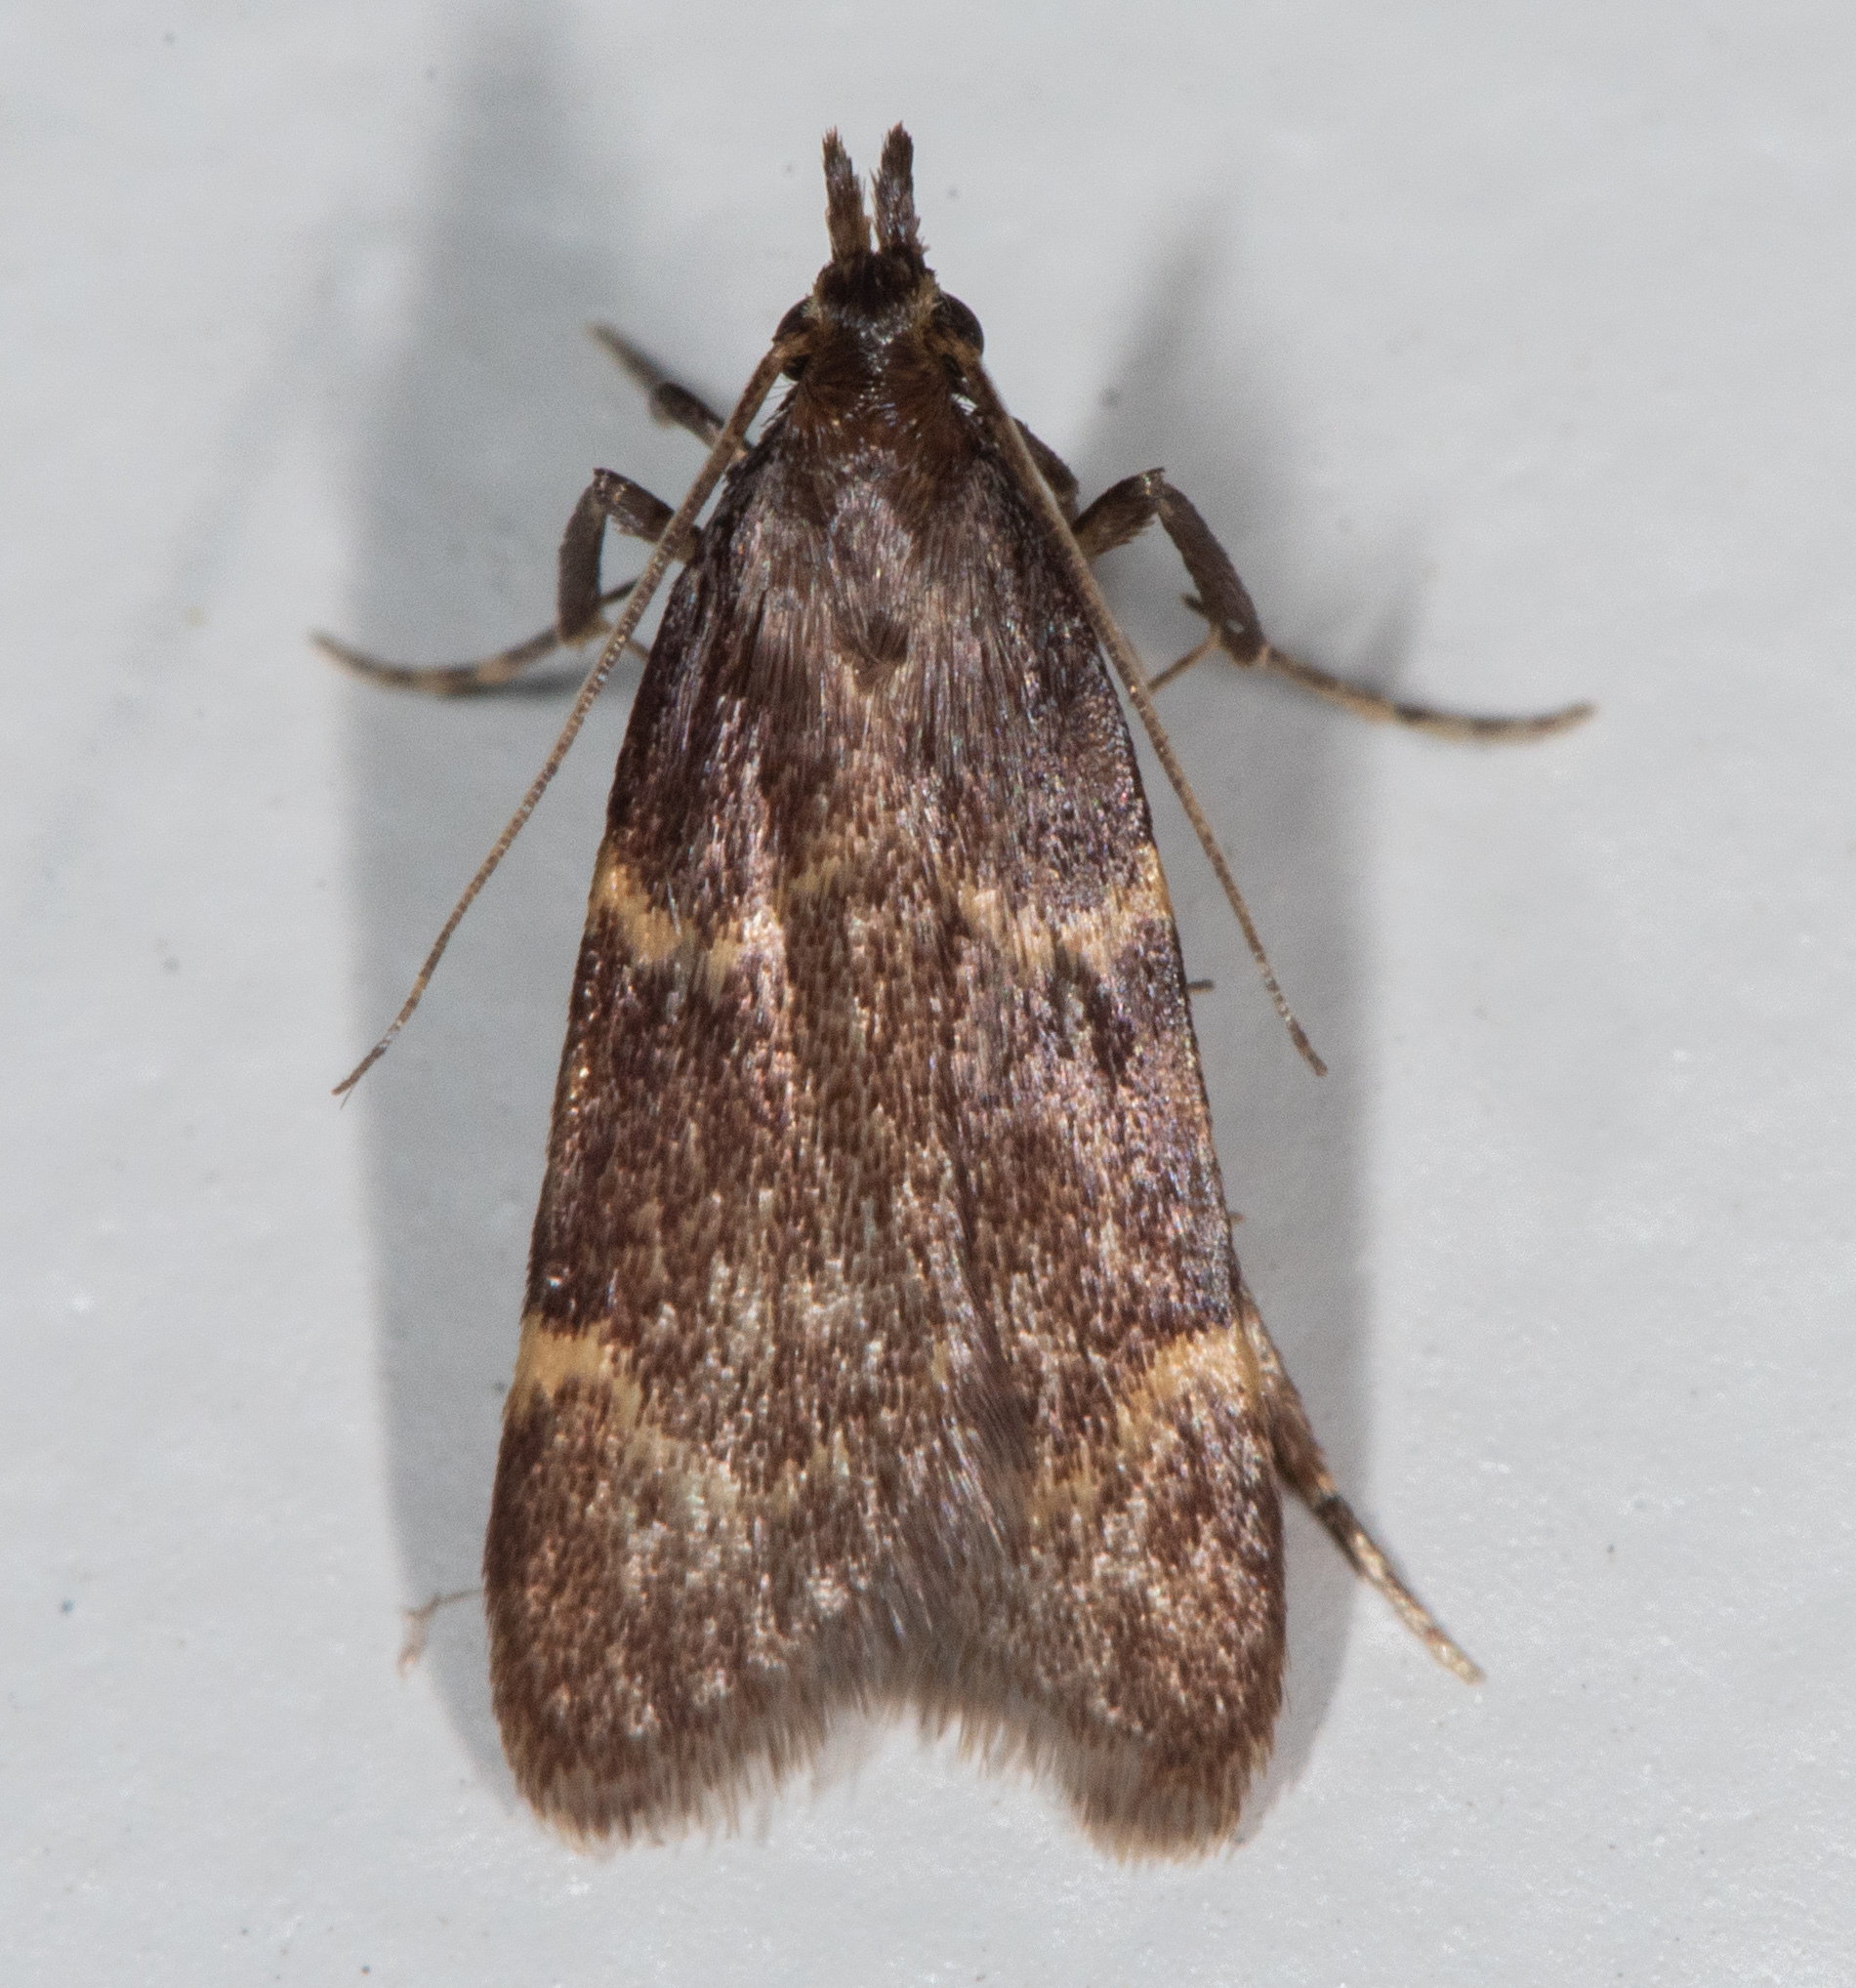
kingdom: Animalia
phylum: Arthropoda
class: Insecta
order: Lepidoptera
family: Pyralidae
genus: Aglossa
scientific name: Aglossa electalis
